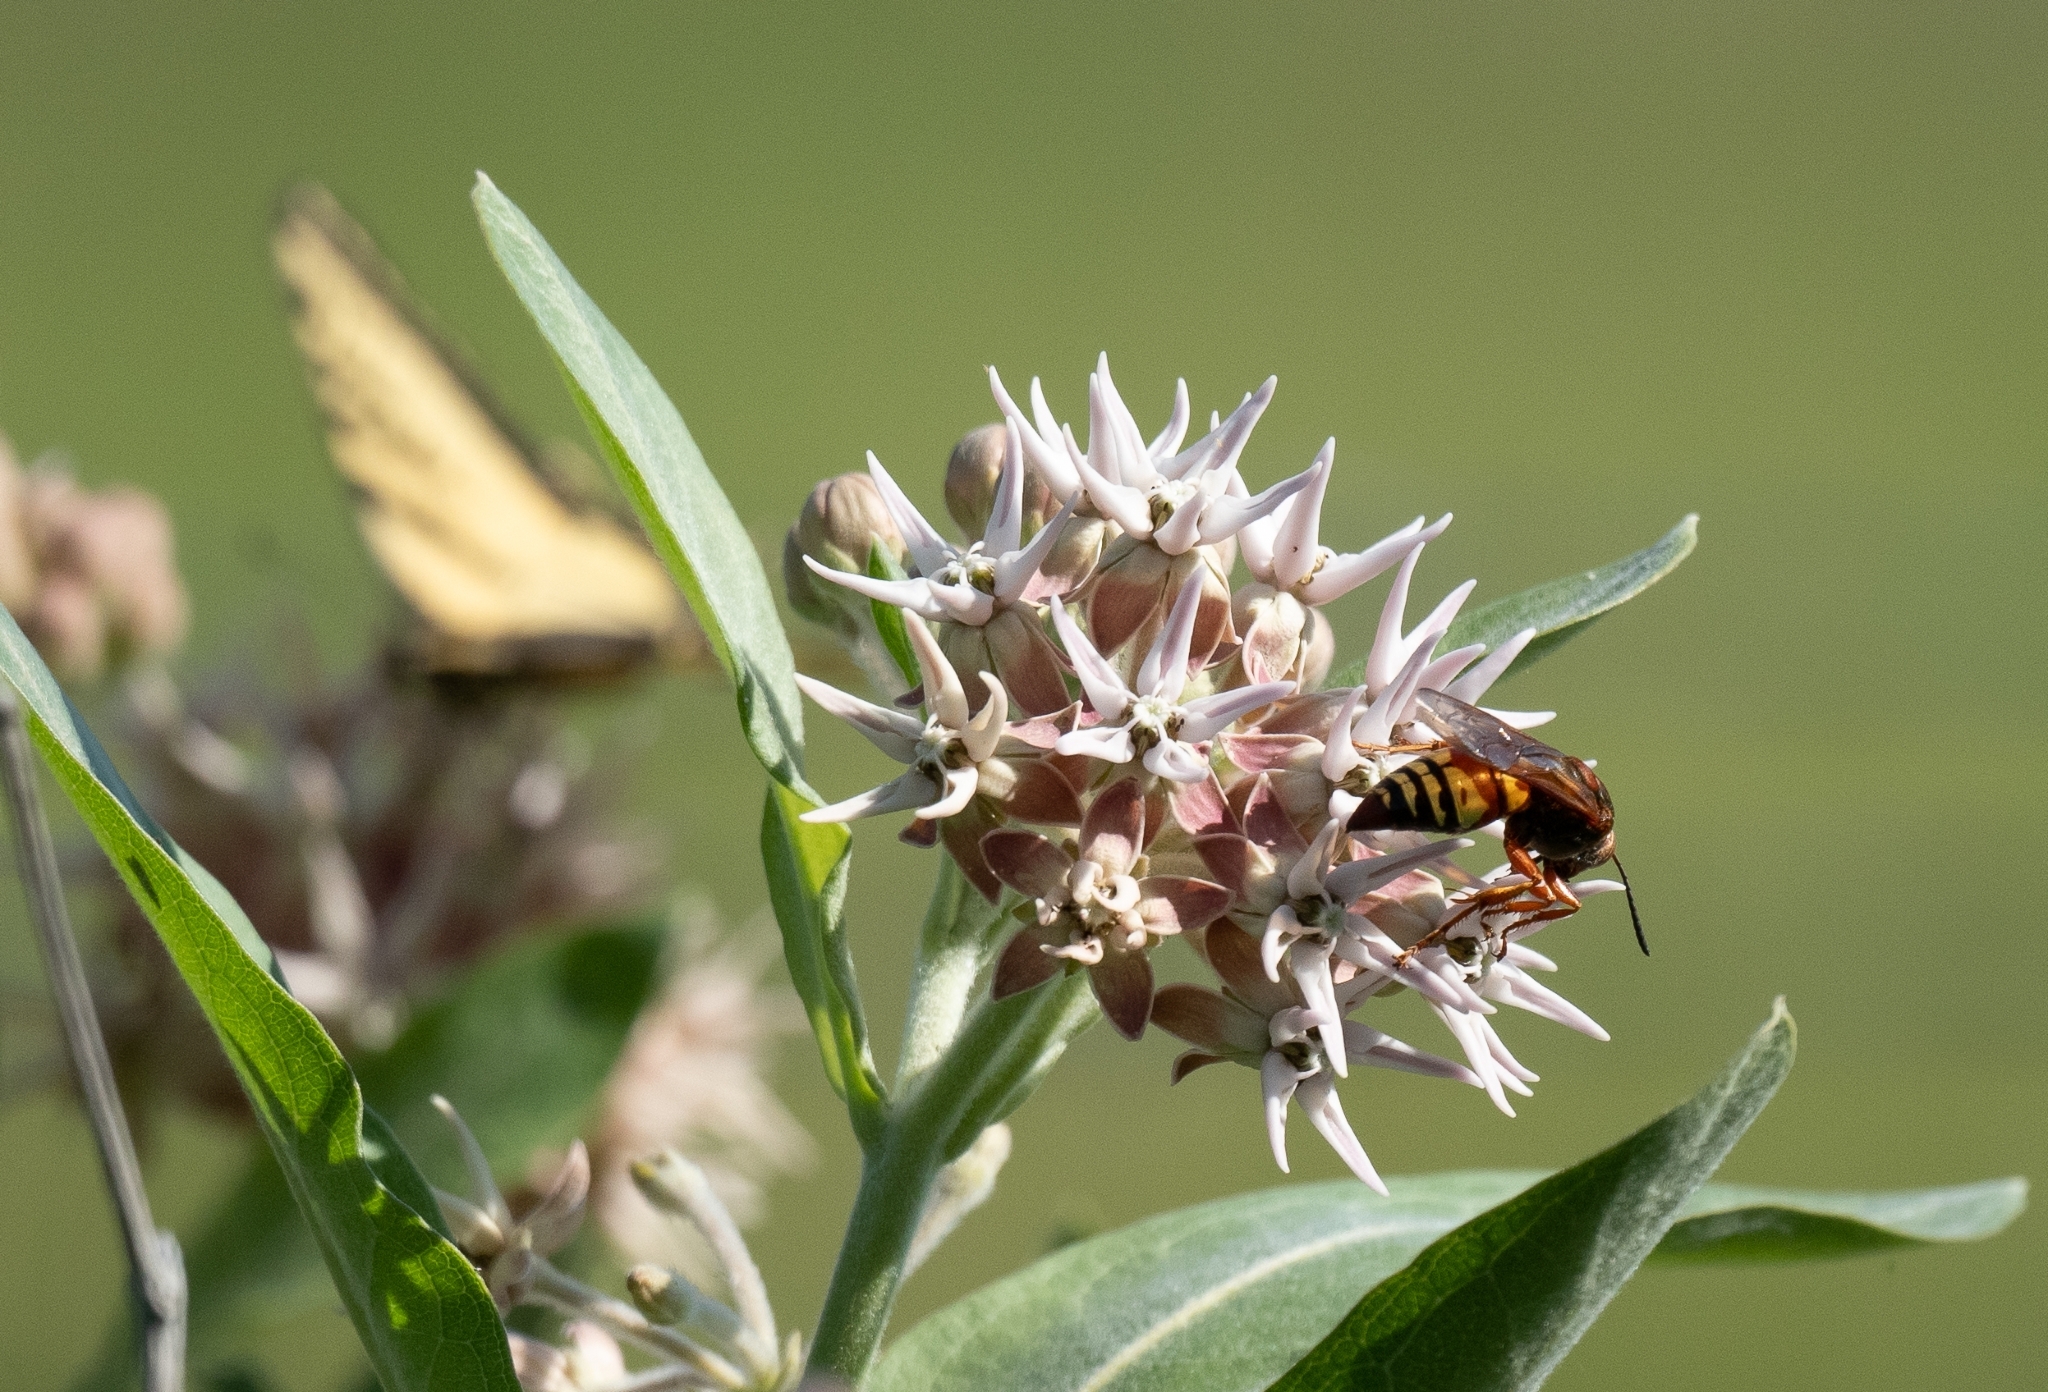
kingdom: Animalia
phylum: Arthropoda
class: Insecta
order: Hymenoptera
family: Crabronidae
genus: Sphecius
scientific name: Sphecius grandis
